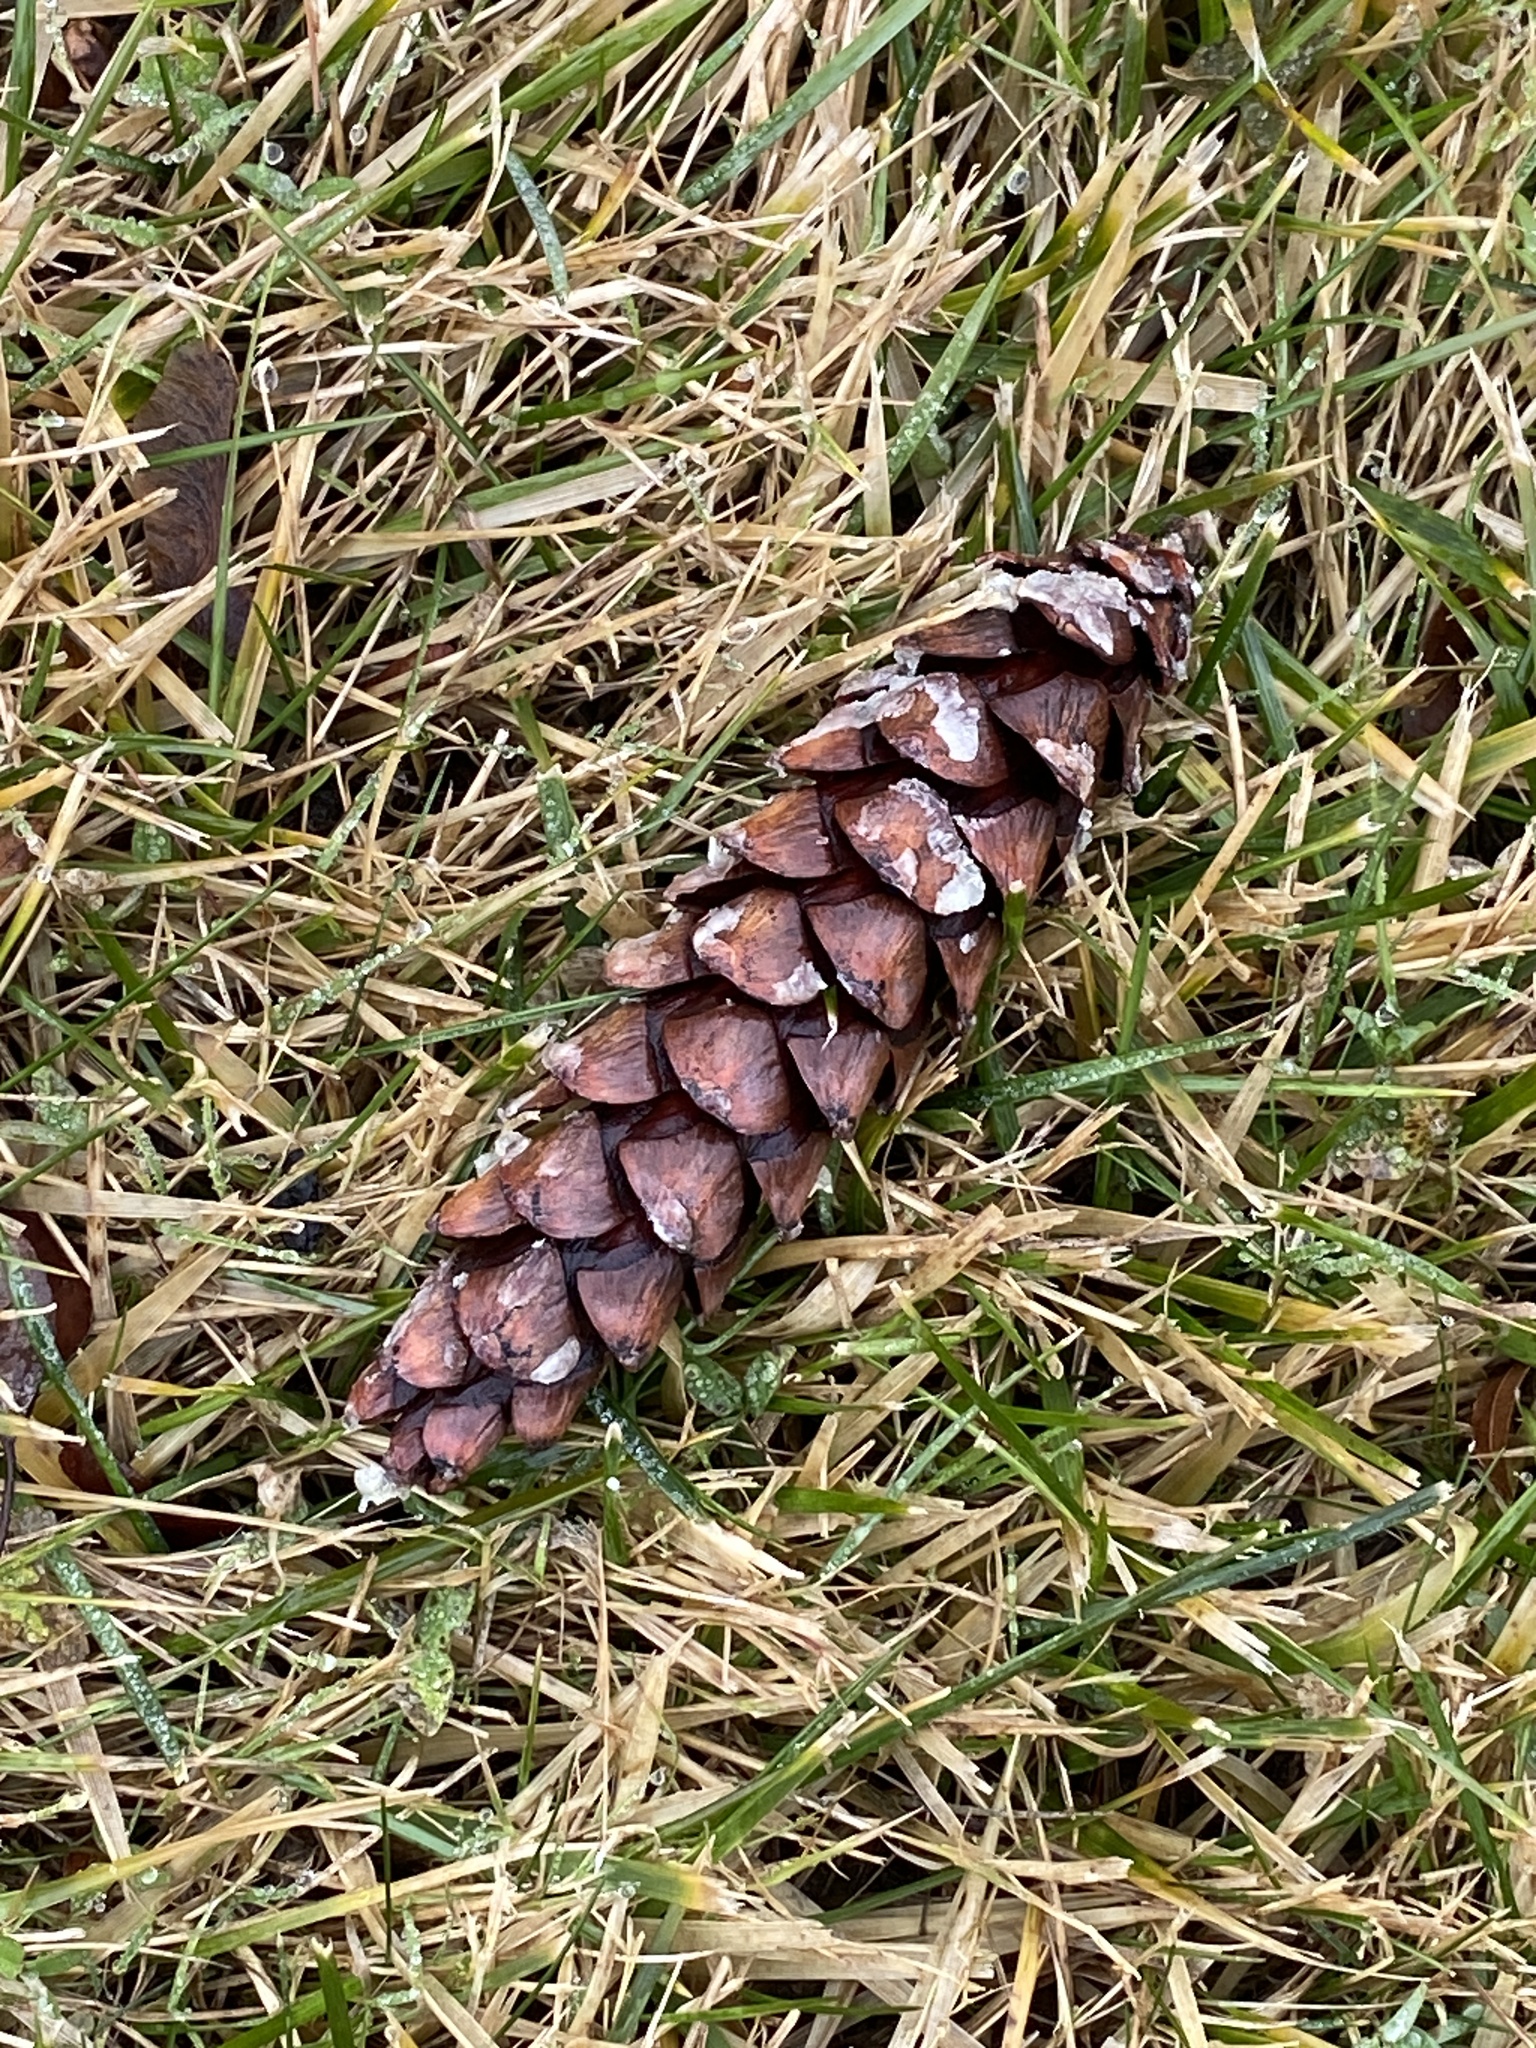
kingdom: Plantae
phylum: Tracheophyta
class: Pinopsida
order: Pinales
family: Pinaceae
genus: Pinus
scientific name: Pinus strobus
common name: Weymouth pine
